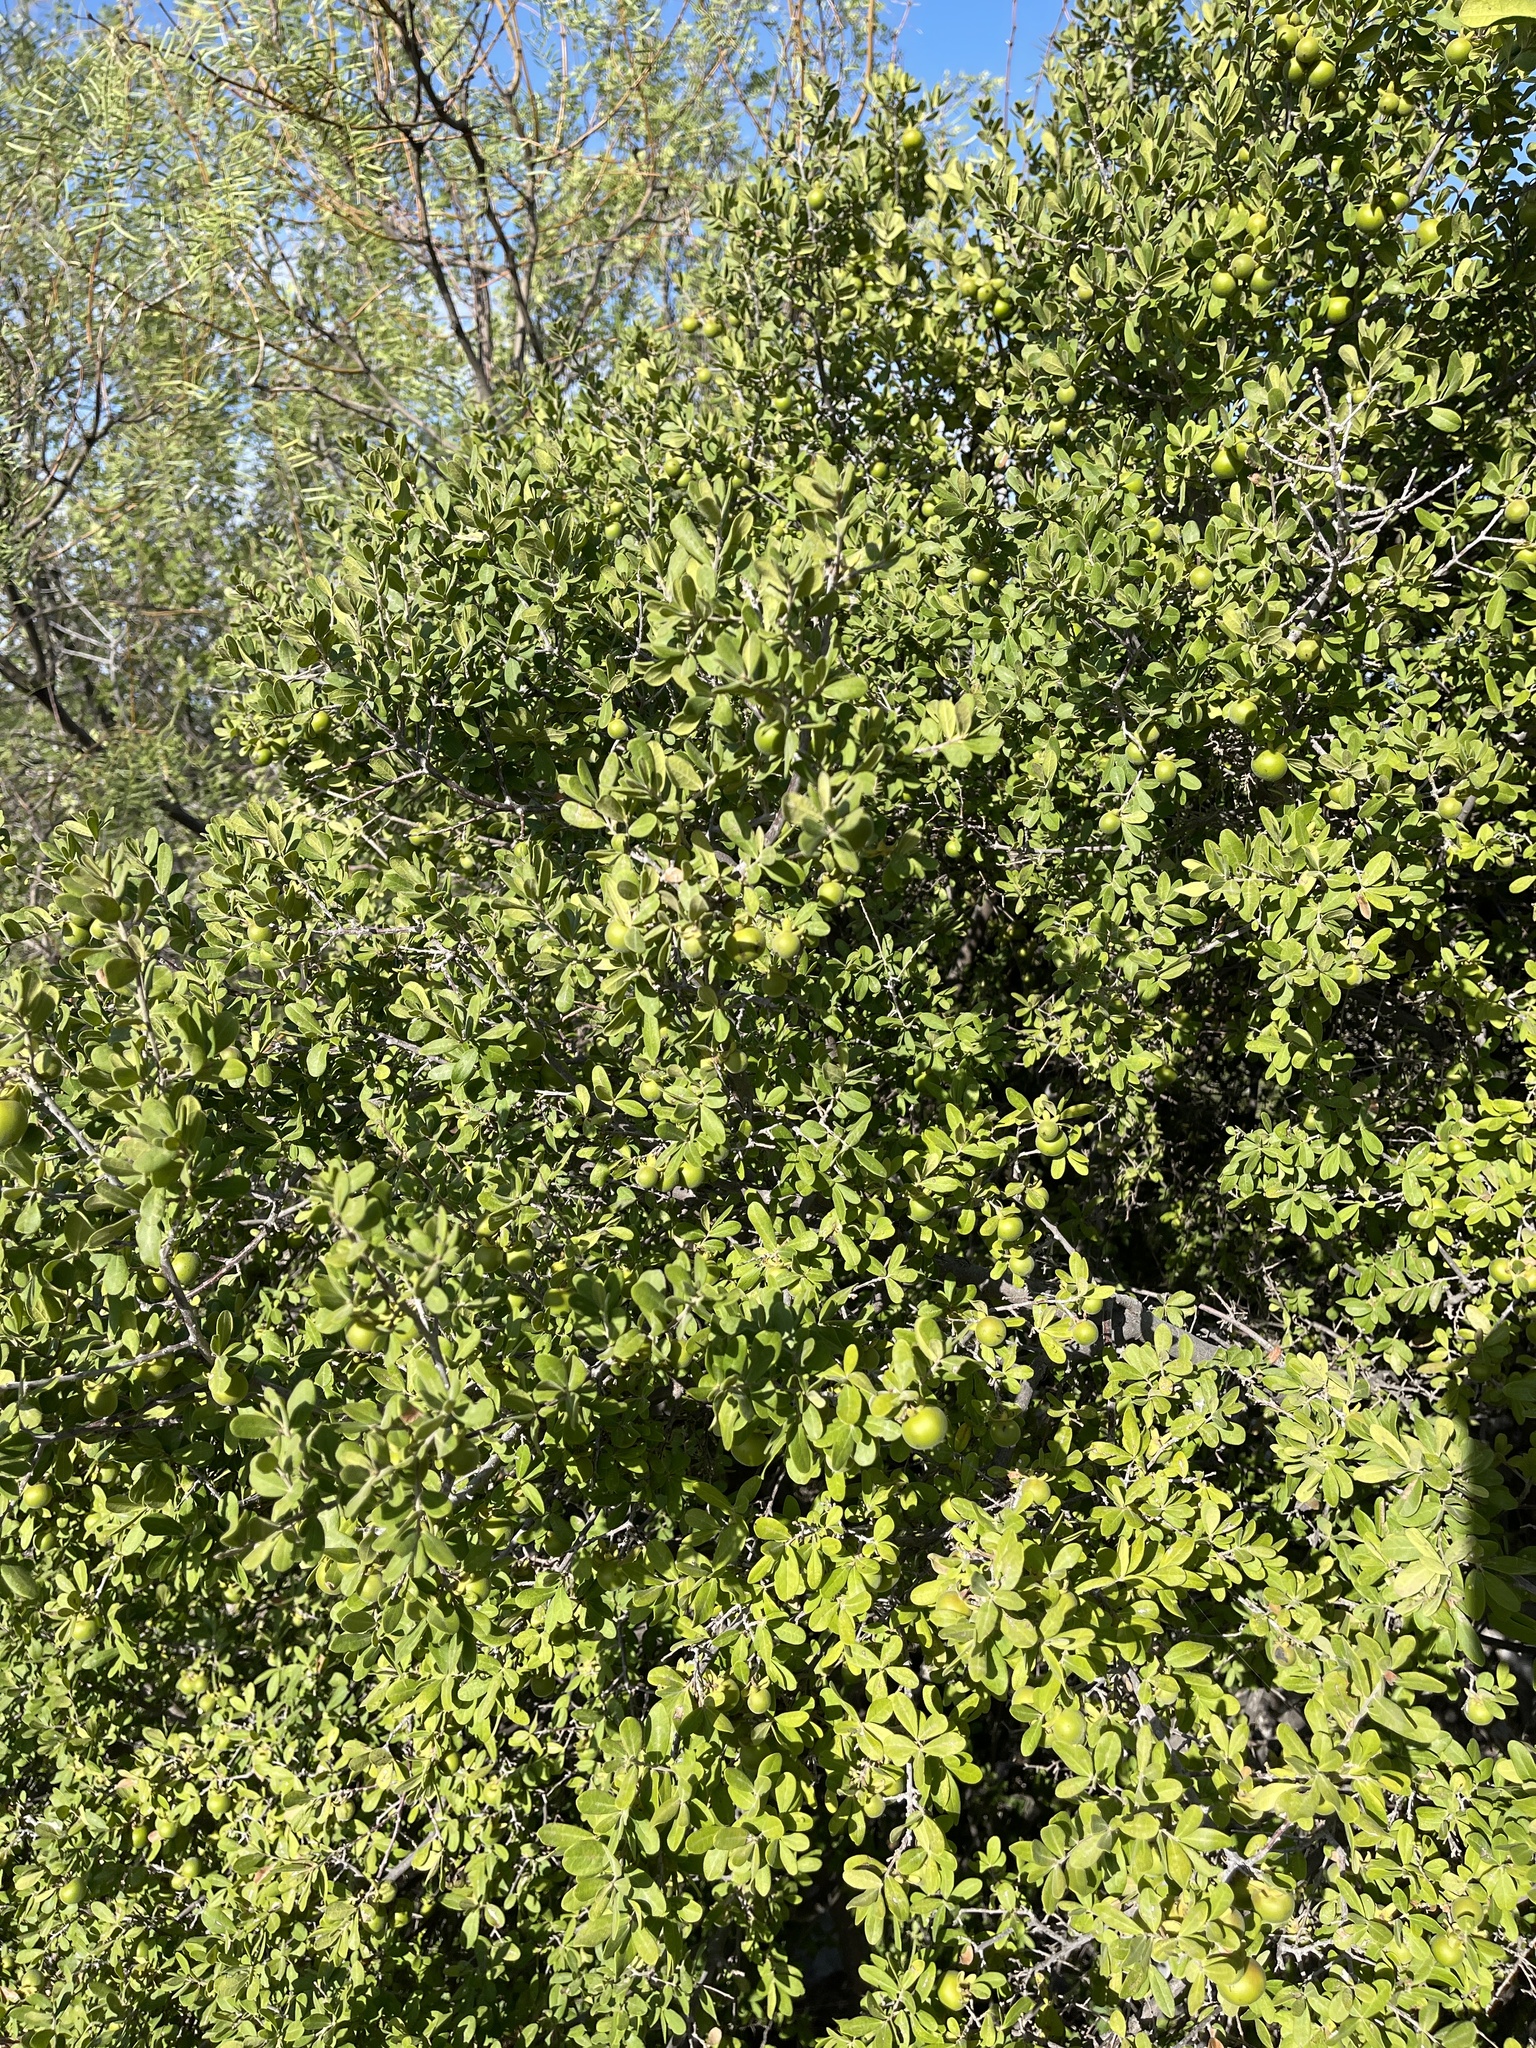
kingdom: Plantae
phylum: Tracheophyta
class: Magnoliopsida
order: Ericales
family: Ebenaceae
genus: Diospyros
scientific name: Diospyros texana
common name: Texas persimmon
